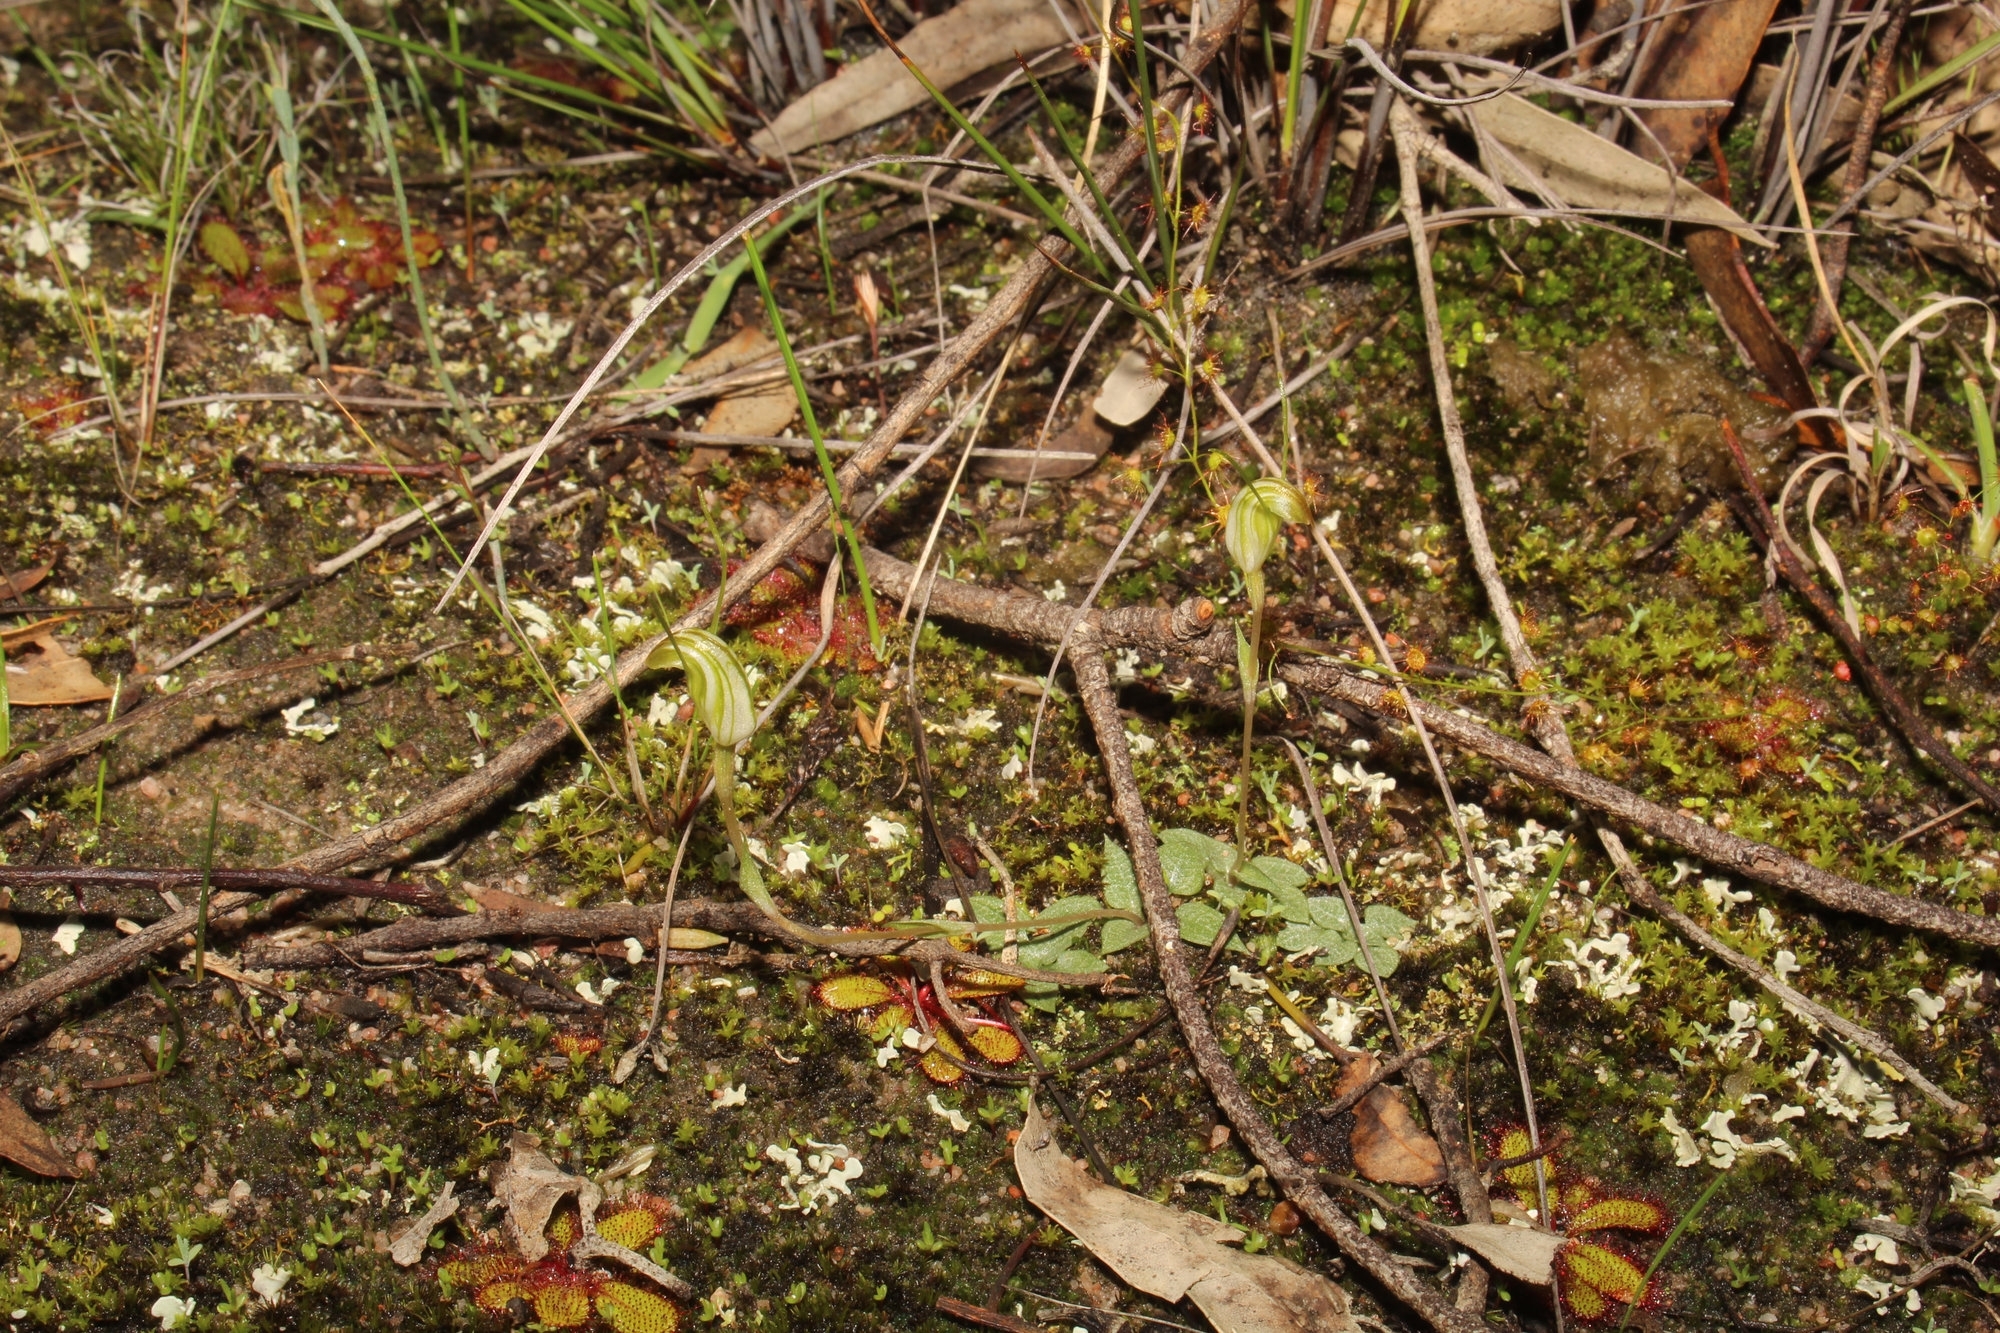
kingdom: Plantae
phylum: Tracheophyta
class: Liliopsida
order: Asparagales
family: Orchidaceae
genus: Pterostylis
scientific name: Pterostylis parva
